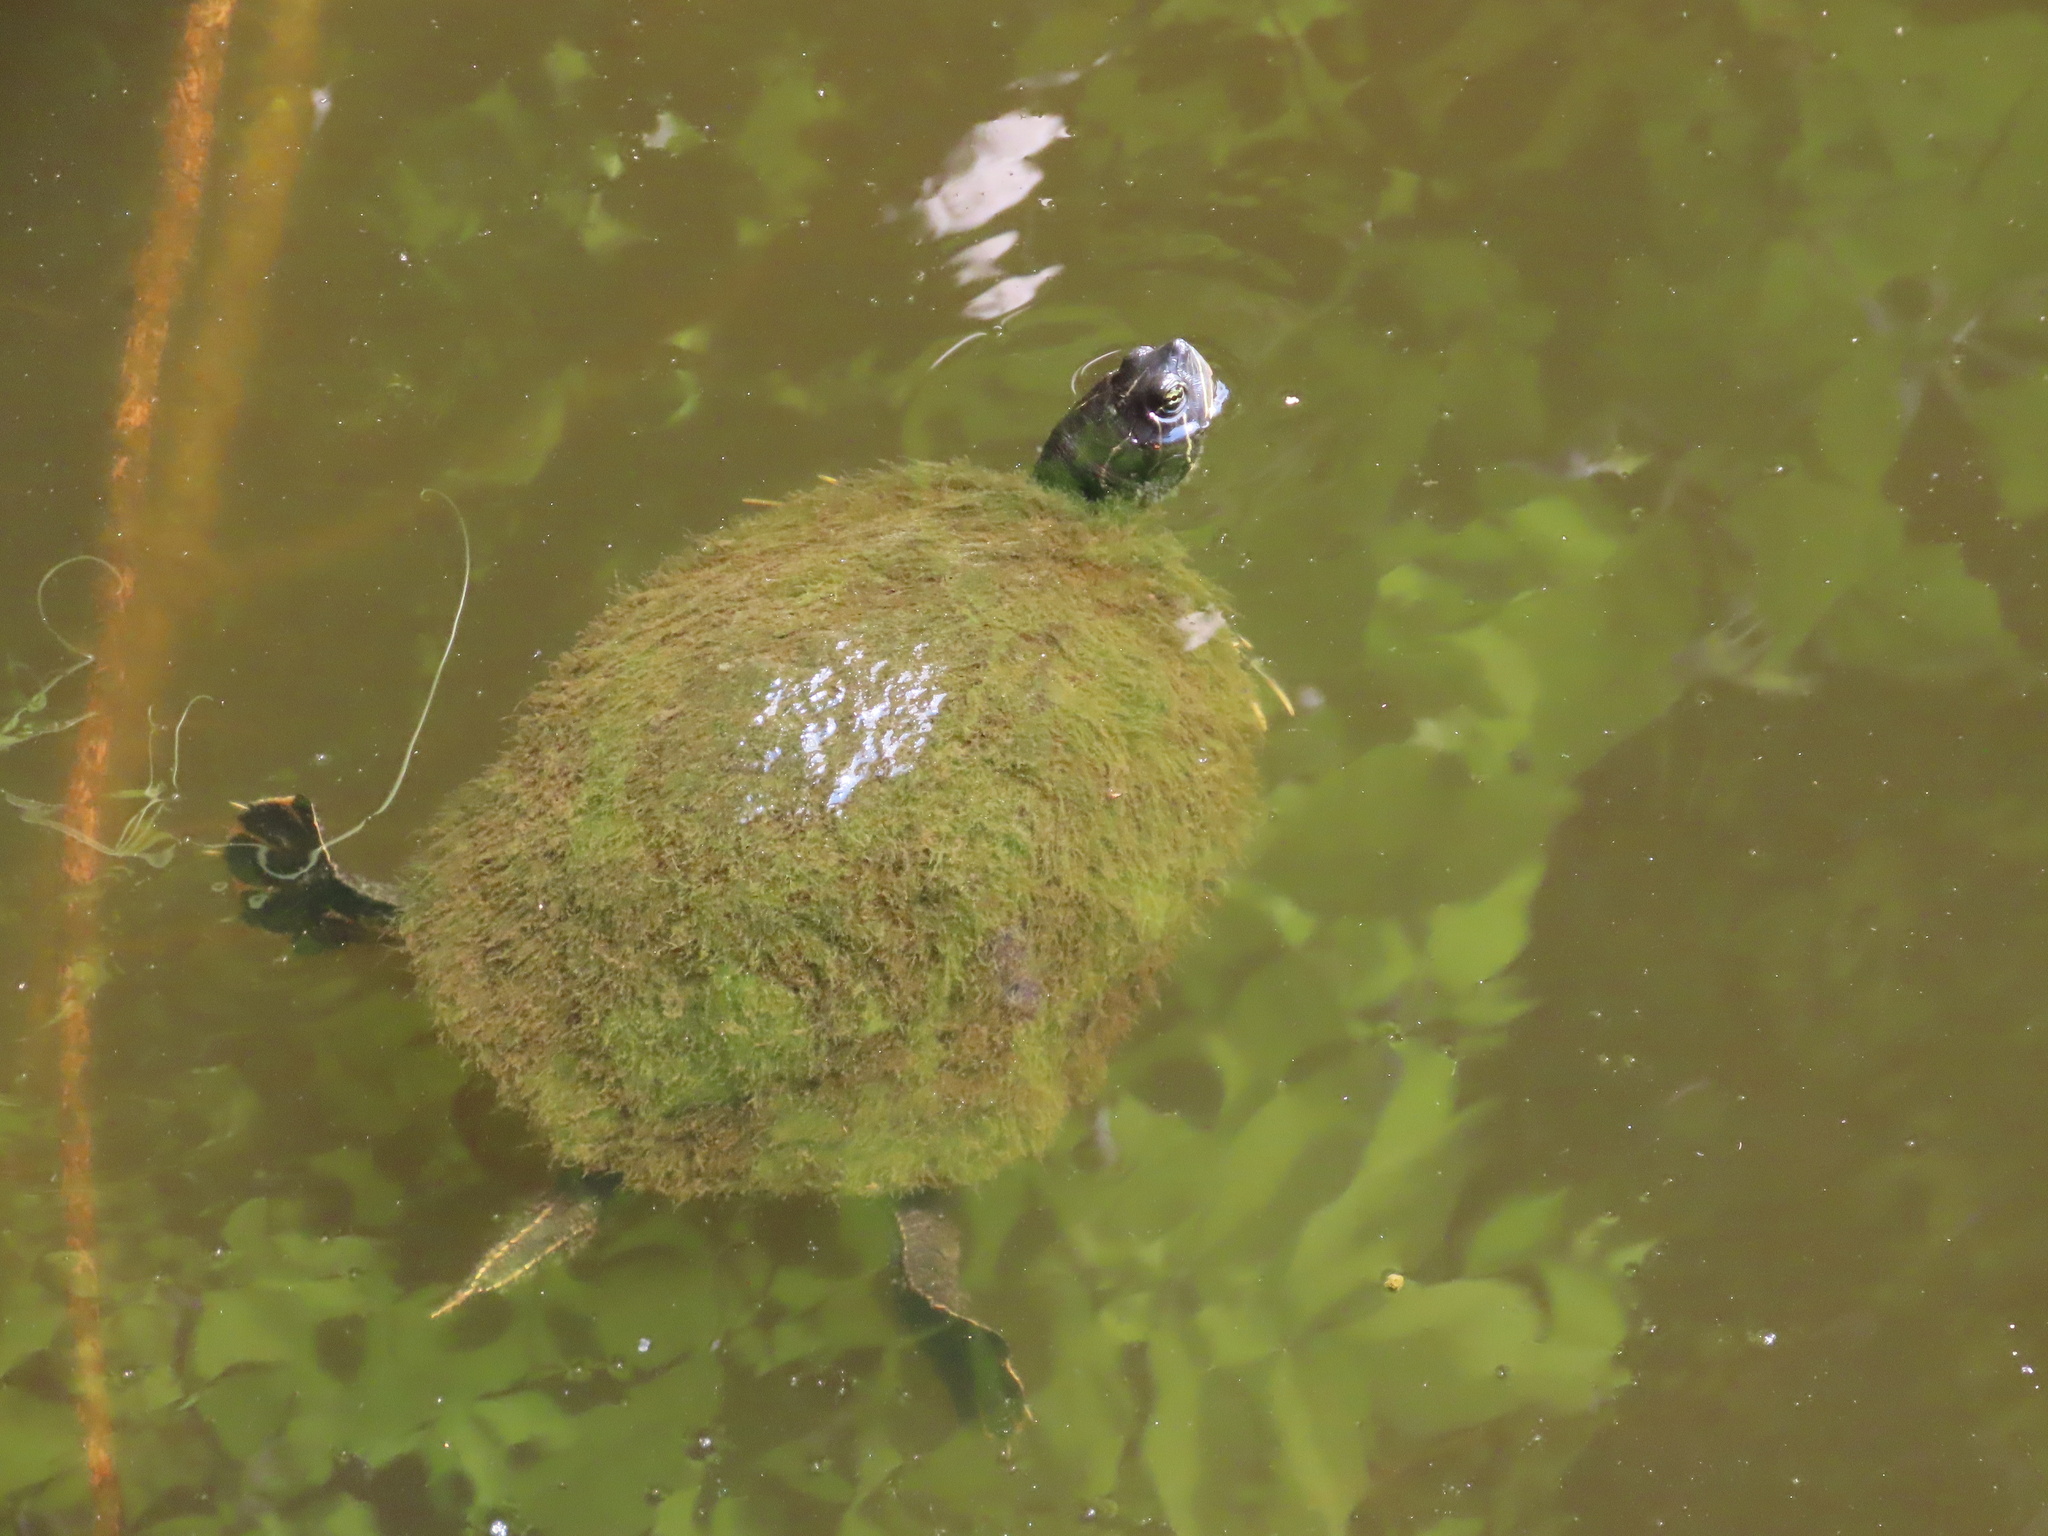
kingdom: Animalia
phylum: Chordata
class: Testudines
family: Emydidae
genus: Pseudemys
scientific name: Pseudemys rubriventris
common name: American red-bellied turtle
